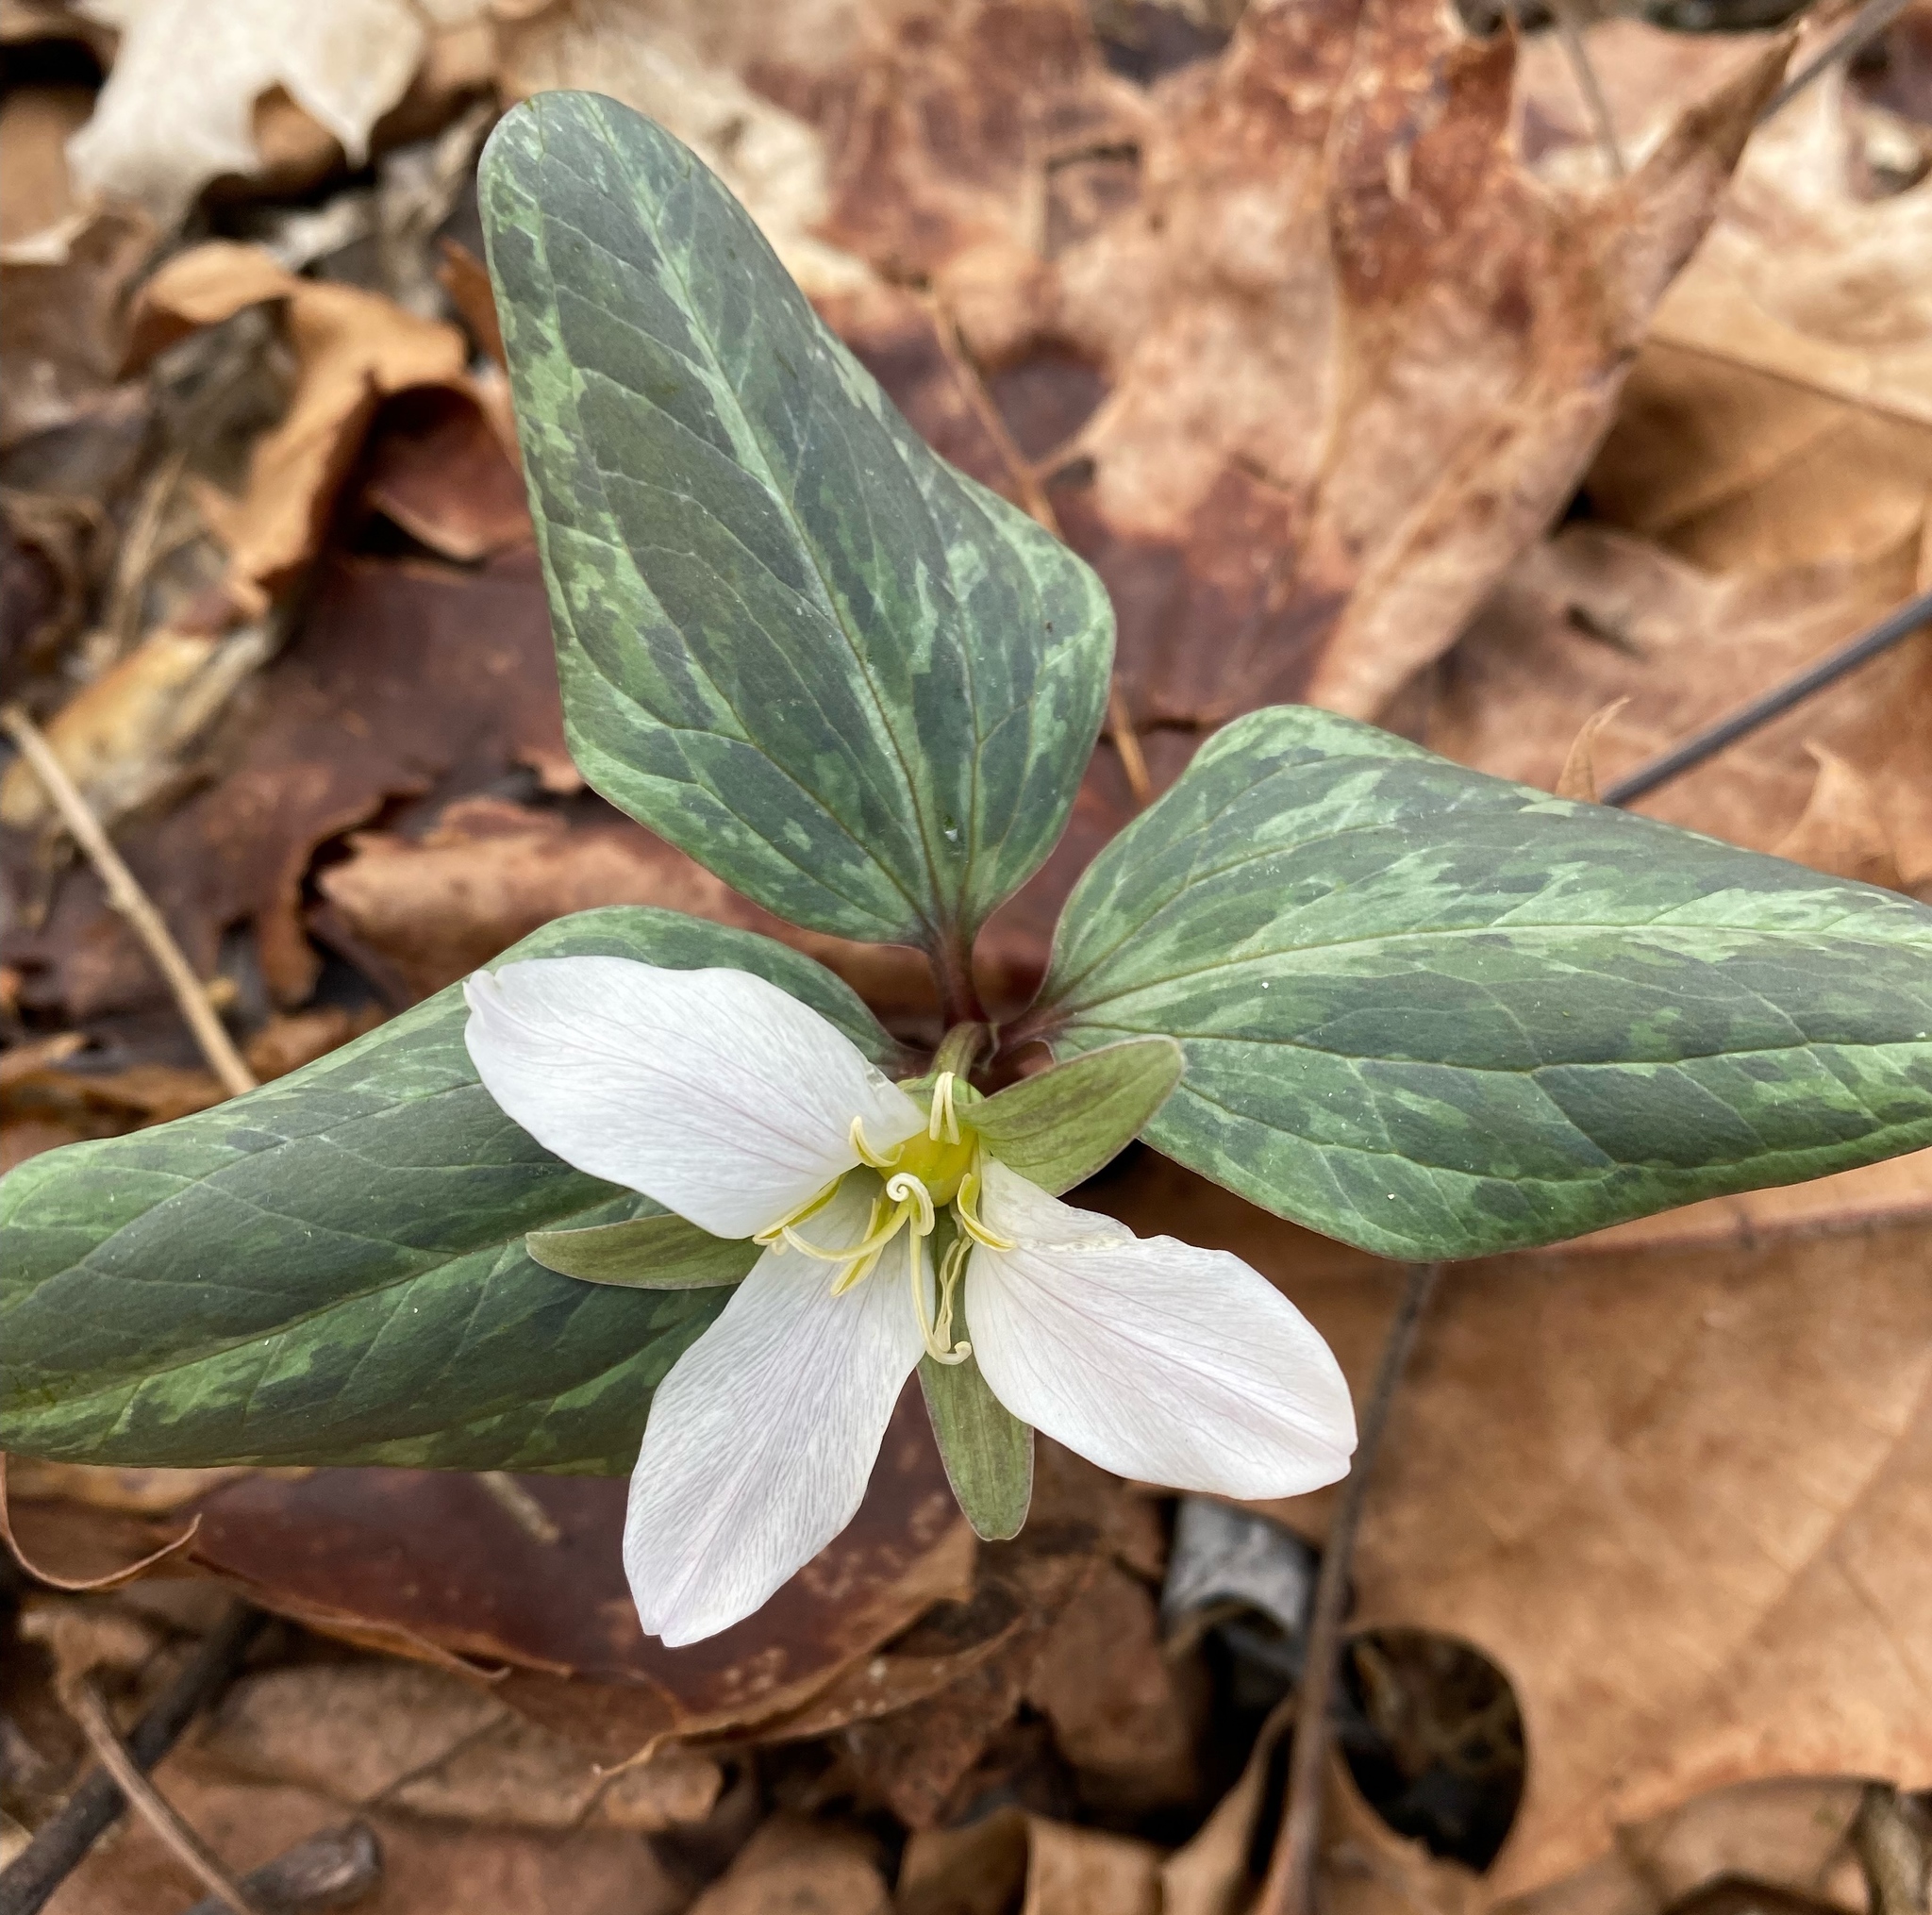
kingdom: Plantae
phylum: Tracheophyta
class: Liliopsida
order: Liliales
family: Melanthiaceae
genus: Trillium
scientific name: Trillium nivale
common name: Dwarf white trillium
